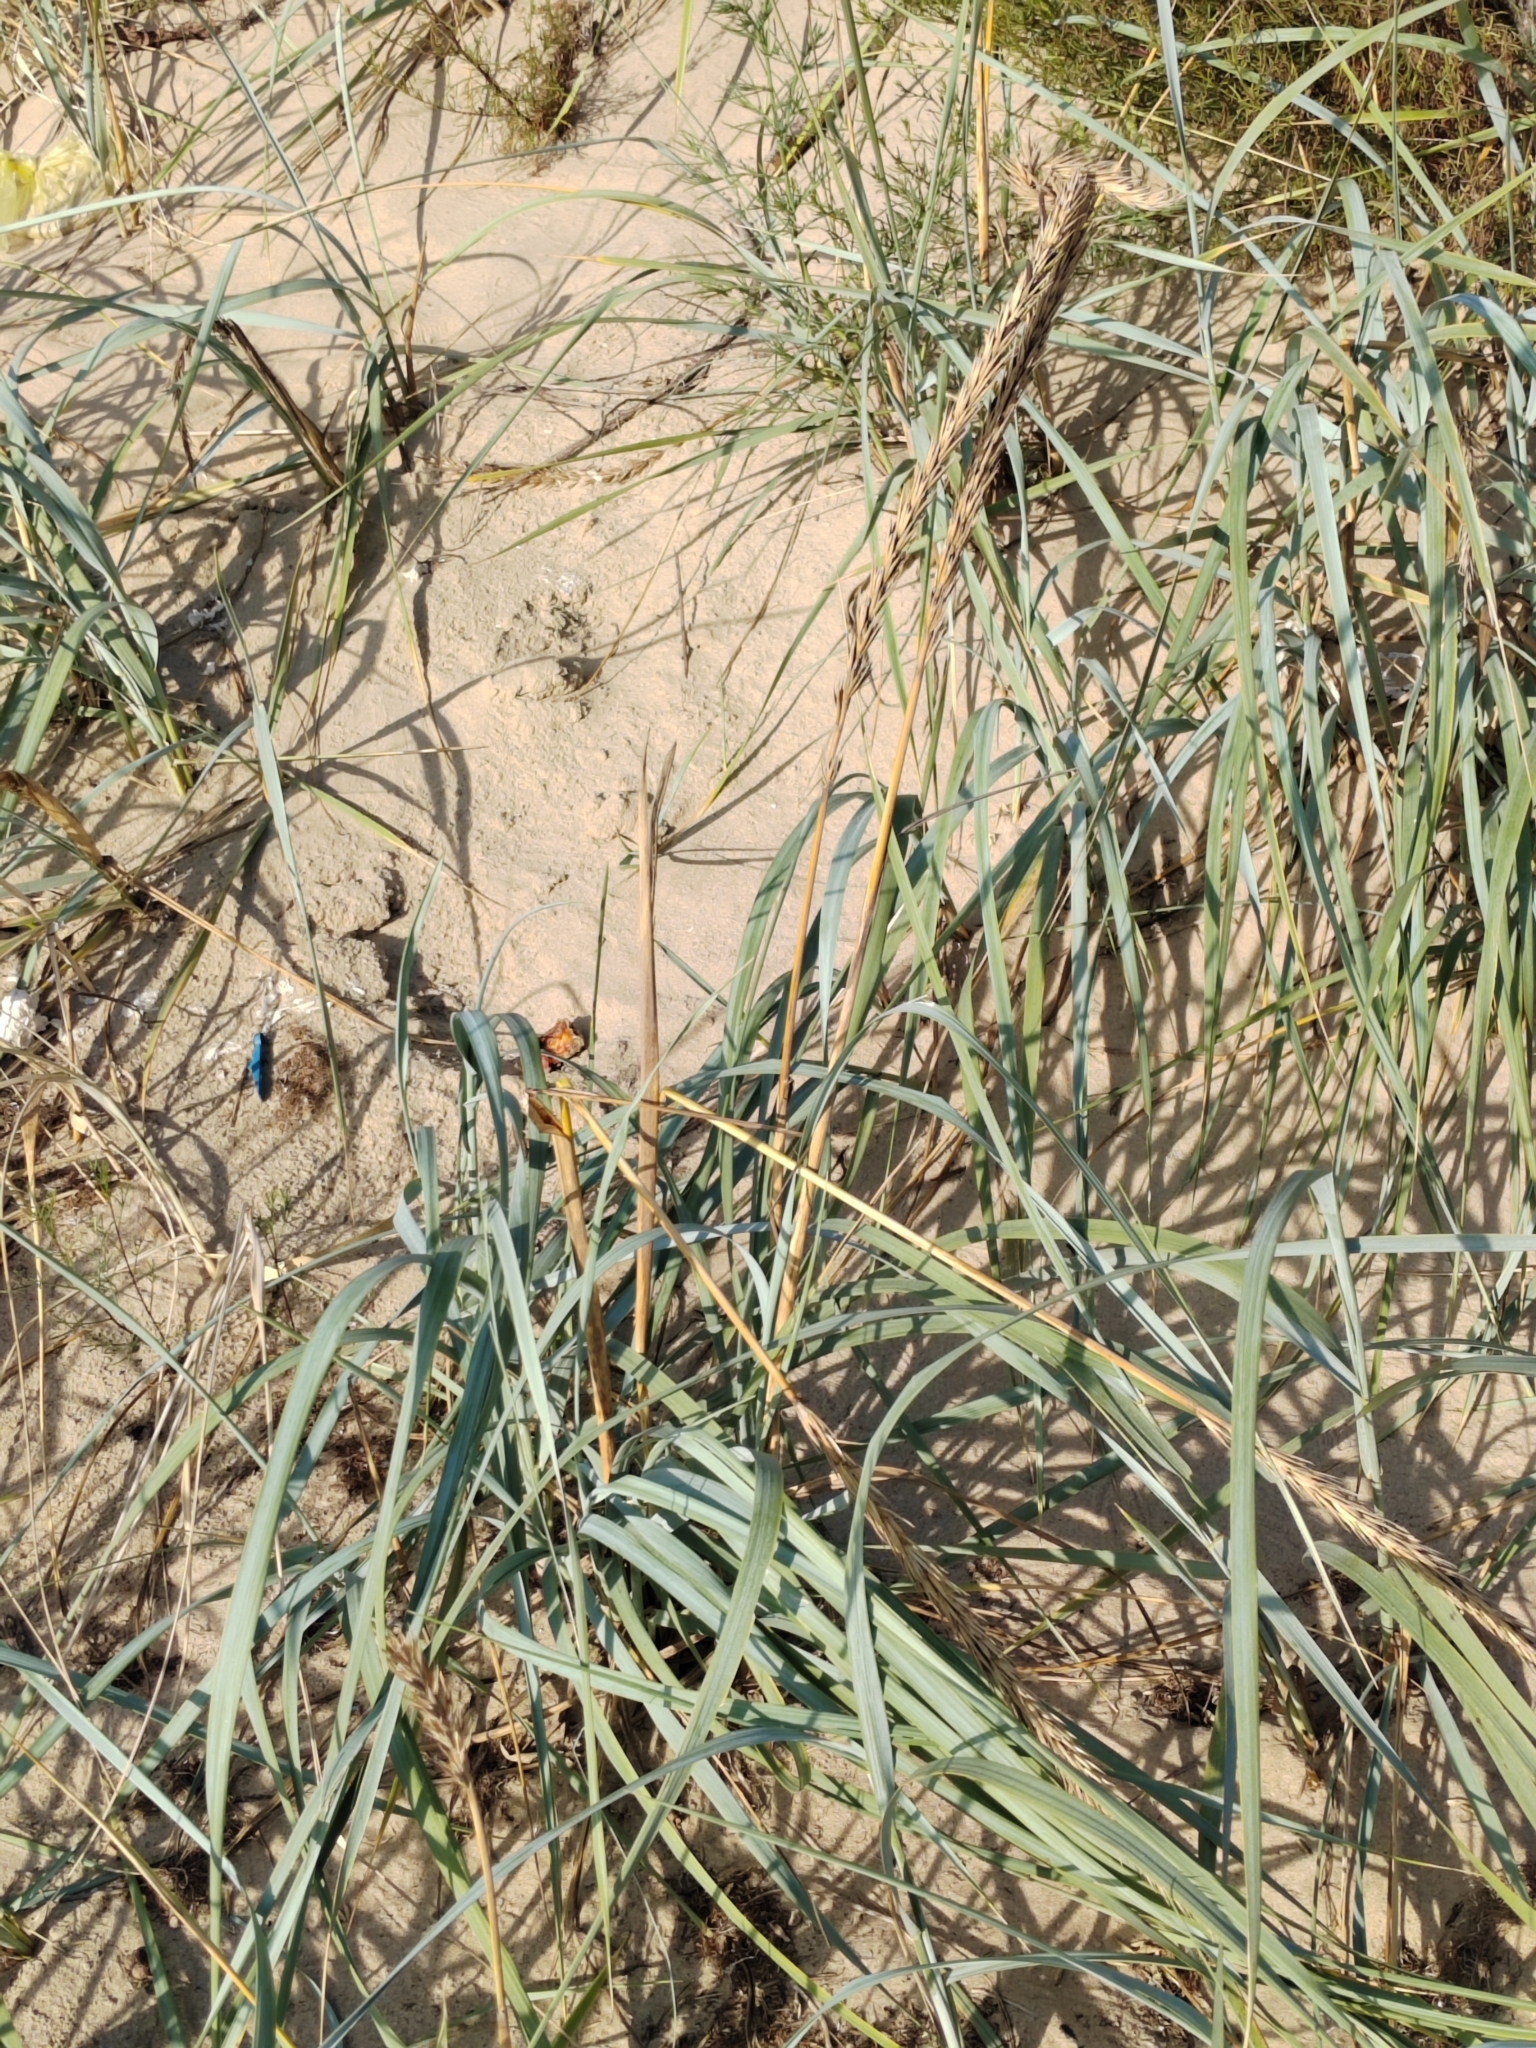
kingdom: Plantae
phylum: Tracheophyta
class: Liliopsida
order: Poales
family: Poaceae
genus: Leymus
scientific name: Leymus racemosus
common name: Mammoth wildrye
